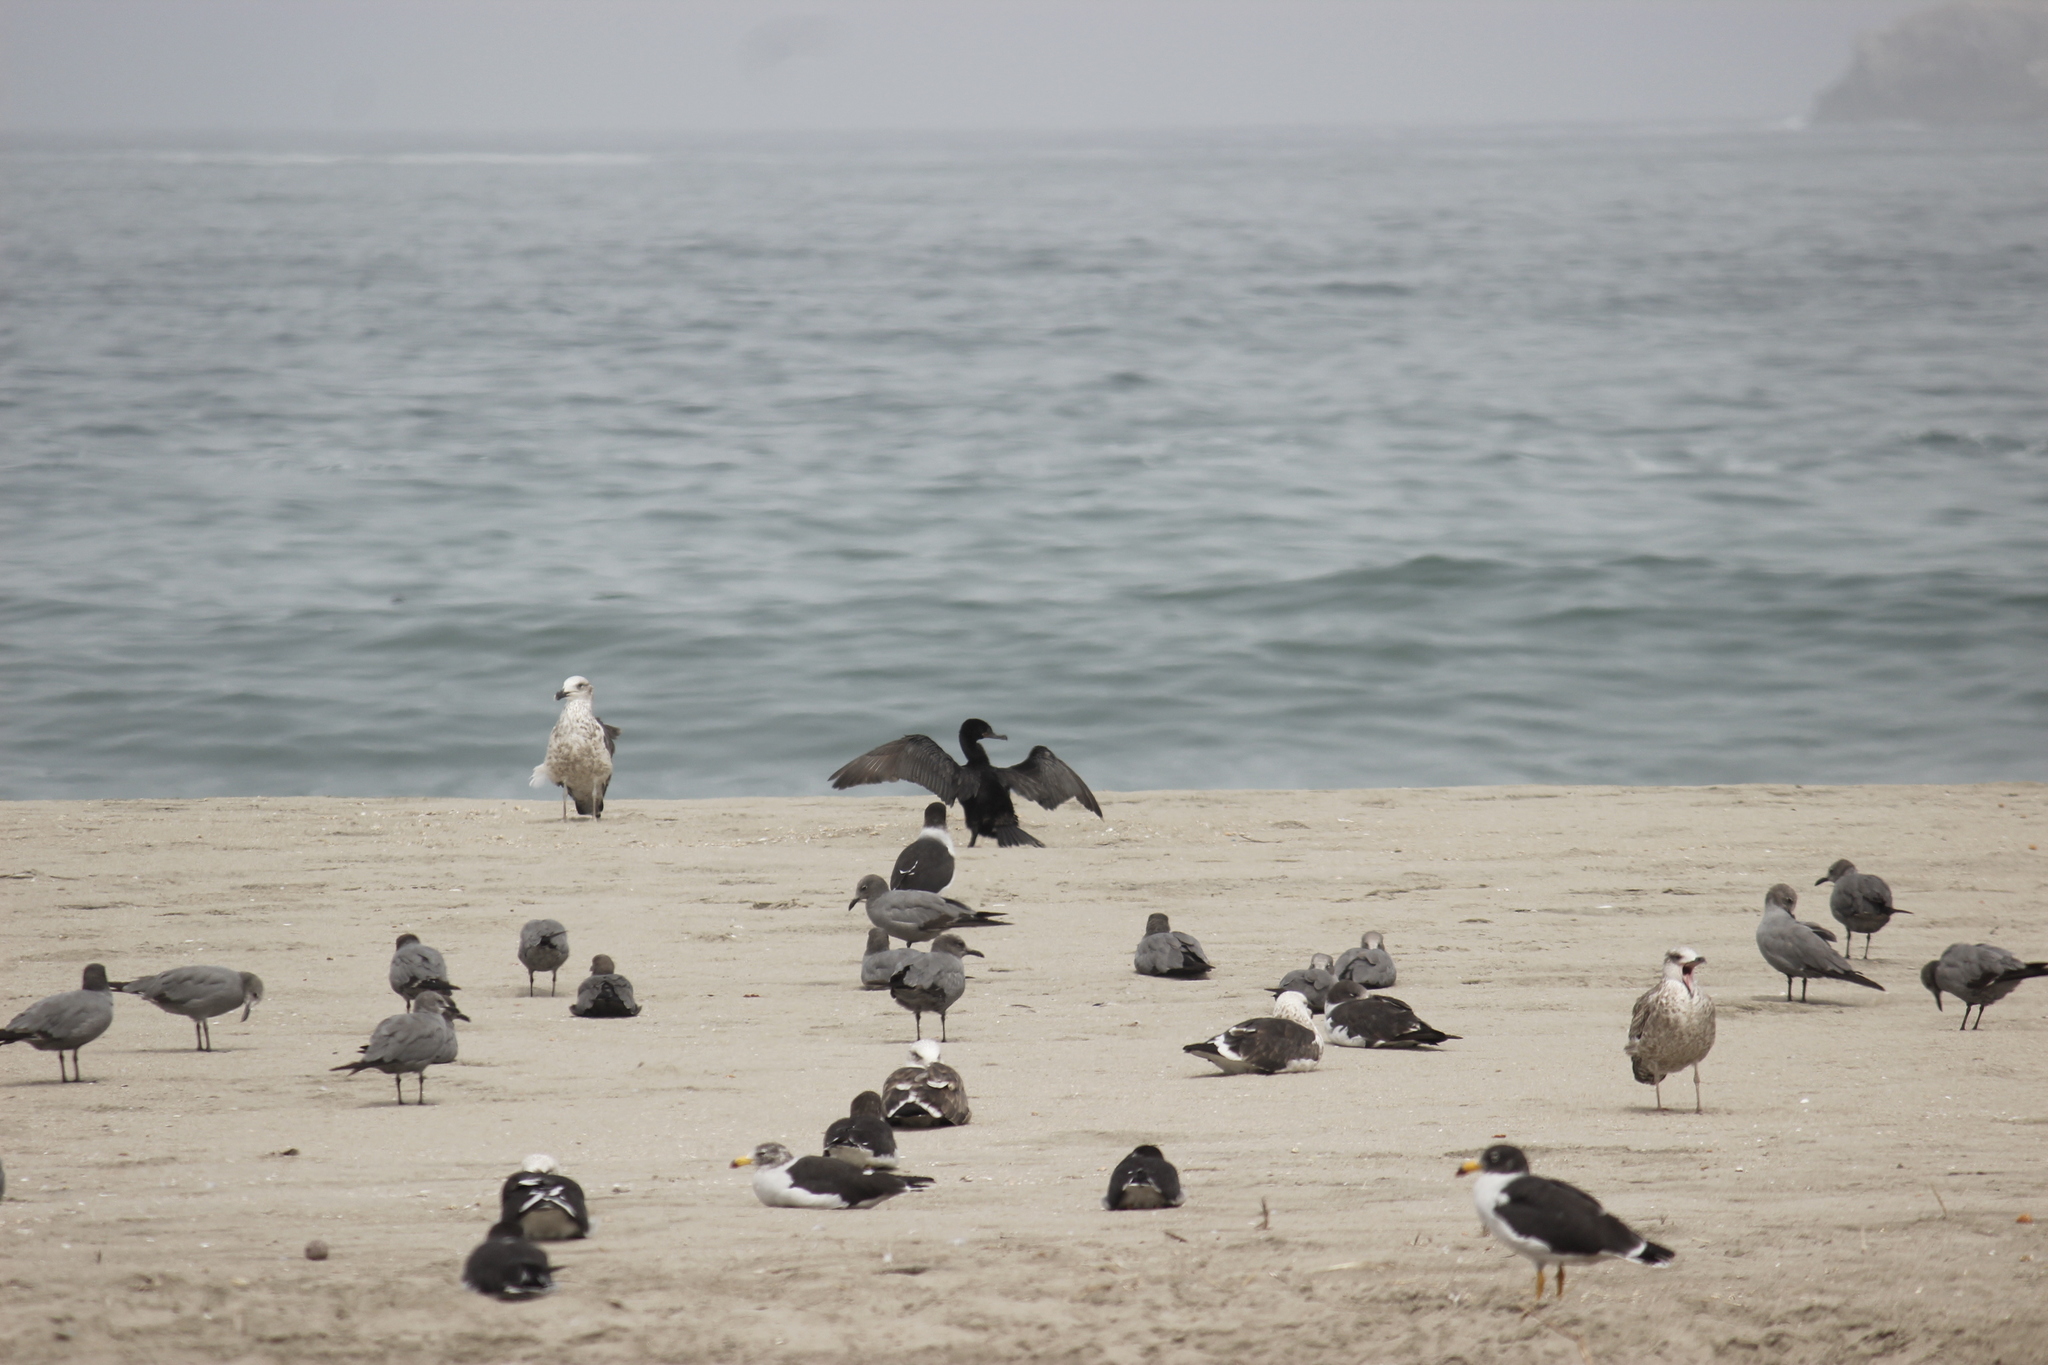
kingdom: Animalia
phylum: Chordata
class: Aves
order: Suliformes
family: Phalacrocoracidae
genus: Phalacrocorax
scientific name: Phalacrocorax brasilianus
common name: Neotropic cormorant
